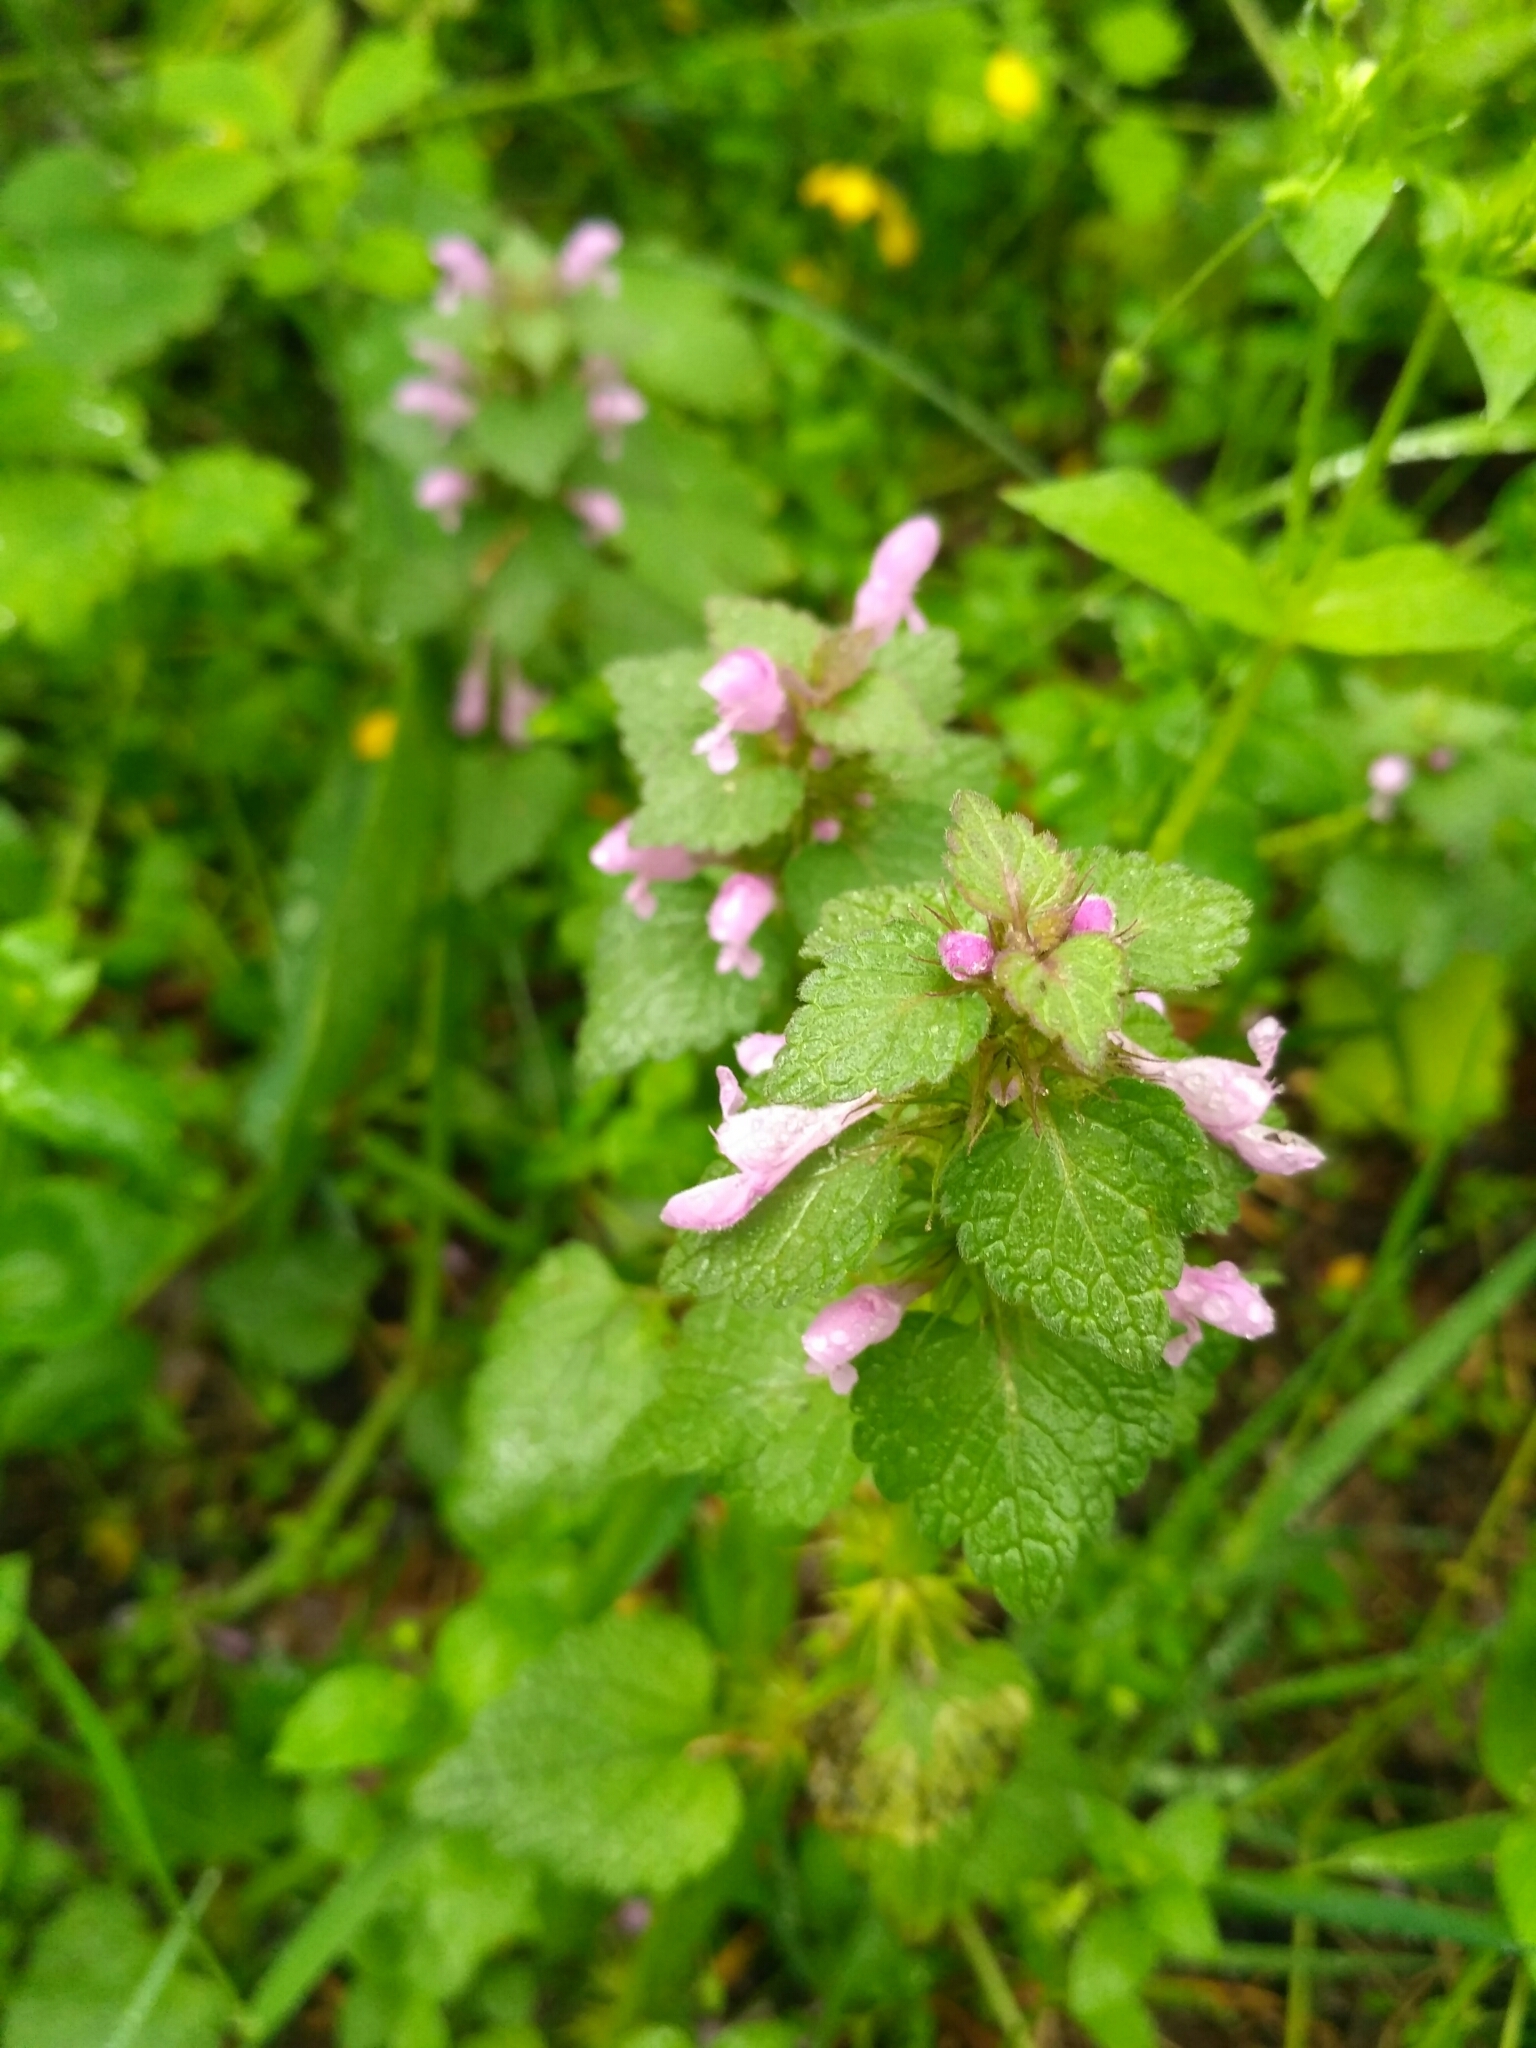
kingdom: Plantae
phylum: Tracheophyta
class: Magnoliopsida
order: Lamiales
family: Lamiaceae
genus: Lamium
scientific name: Lamium purpureum
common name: Red dead-nettle
